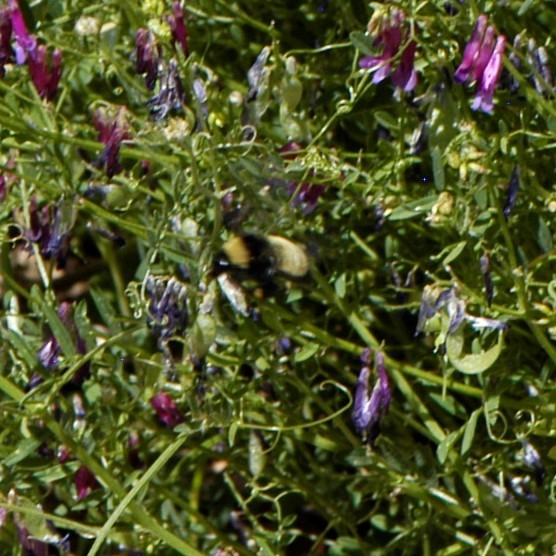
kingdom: Animalia
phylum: Arthropoda
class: Insecta
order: Hymenoptera
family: Apidae
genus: Bombus
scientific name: Bombus pensylvanicus
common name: Bumble bee
